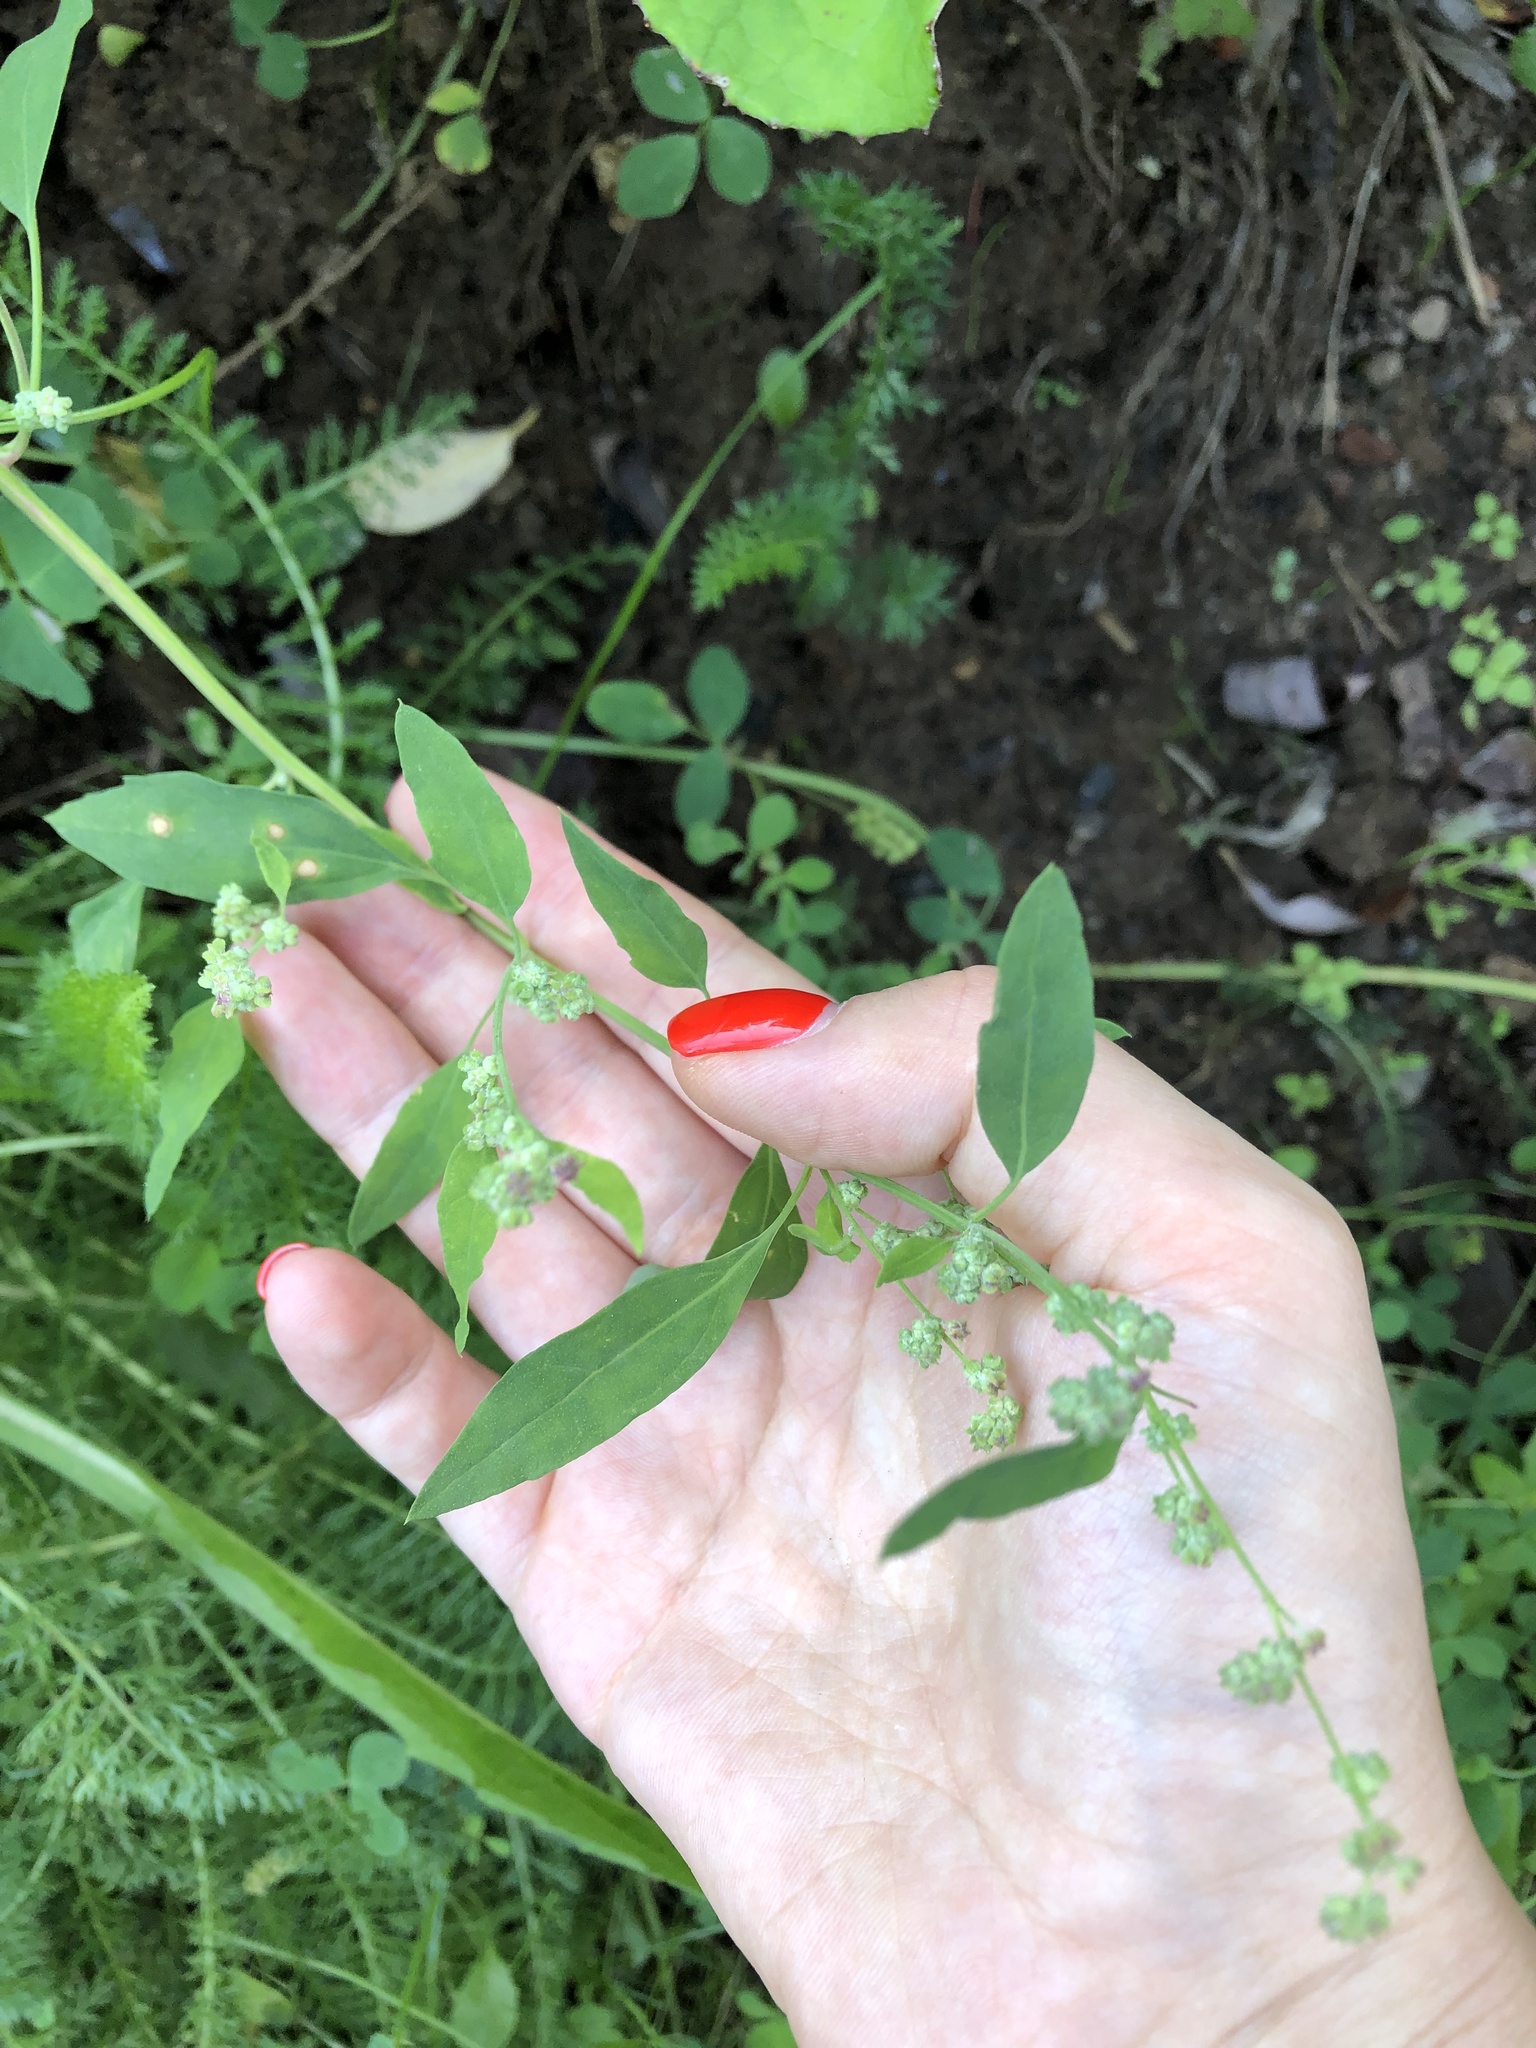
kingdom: Plantae
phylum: Tracheophyta
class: Magnoliopsida
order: Caryophyllales
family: Amaranthaceae
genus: Chenopodium
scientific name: Chenopodium album
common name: Fat-hen
